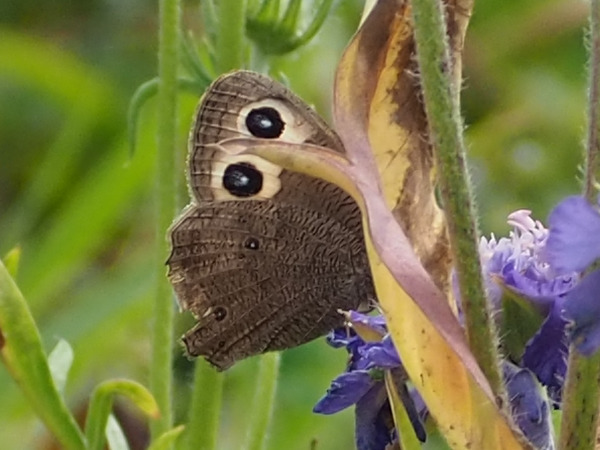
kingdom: Animalia
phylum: Arthropoda
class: Insecta
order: Lepidoptera
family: Nymphalidae
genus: Cercyonis
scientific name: Cercyonis pegala
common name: Common wood-nymph
